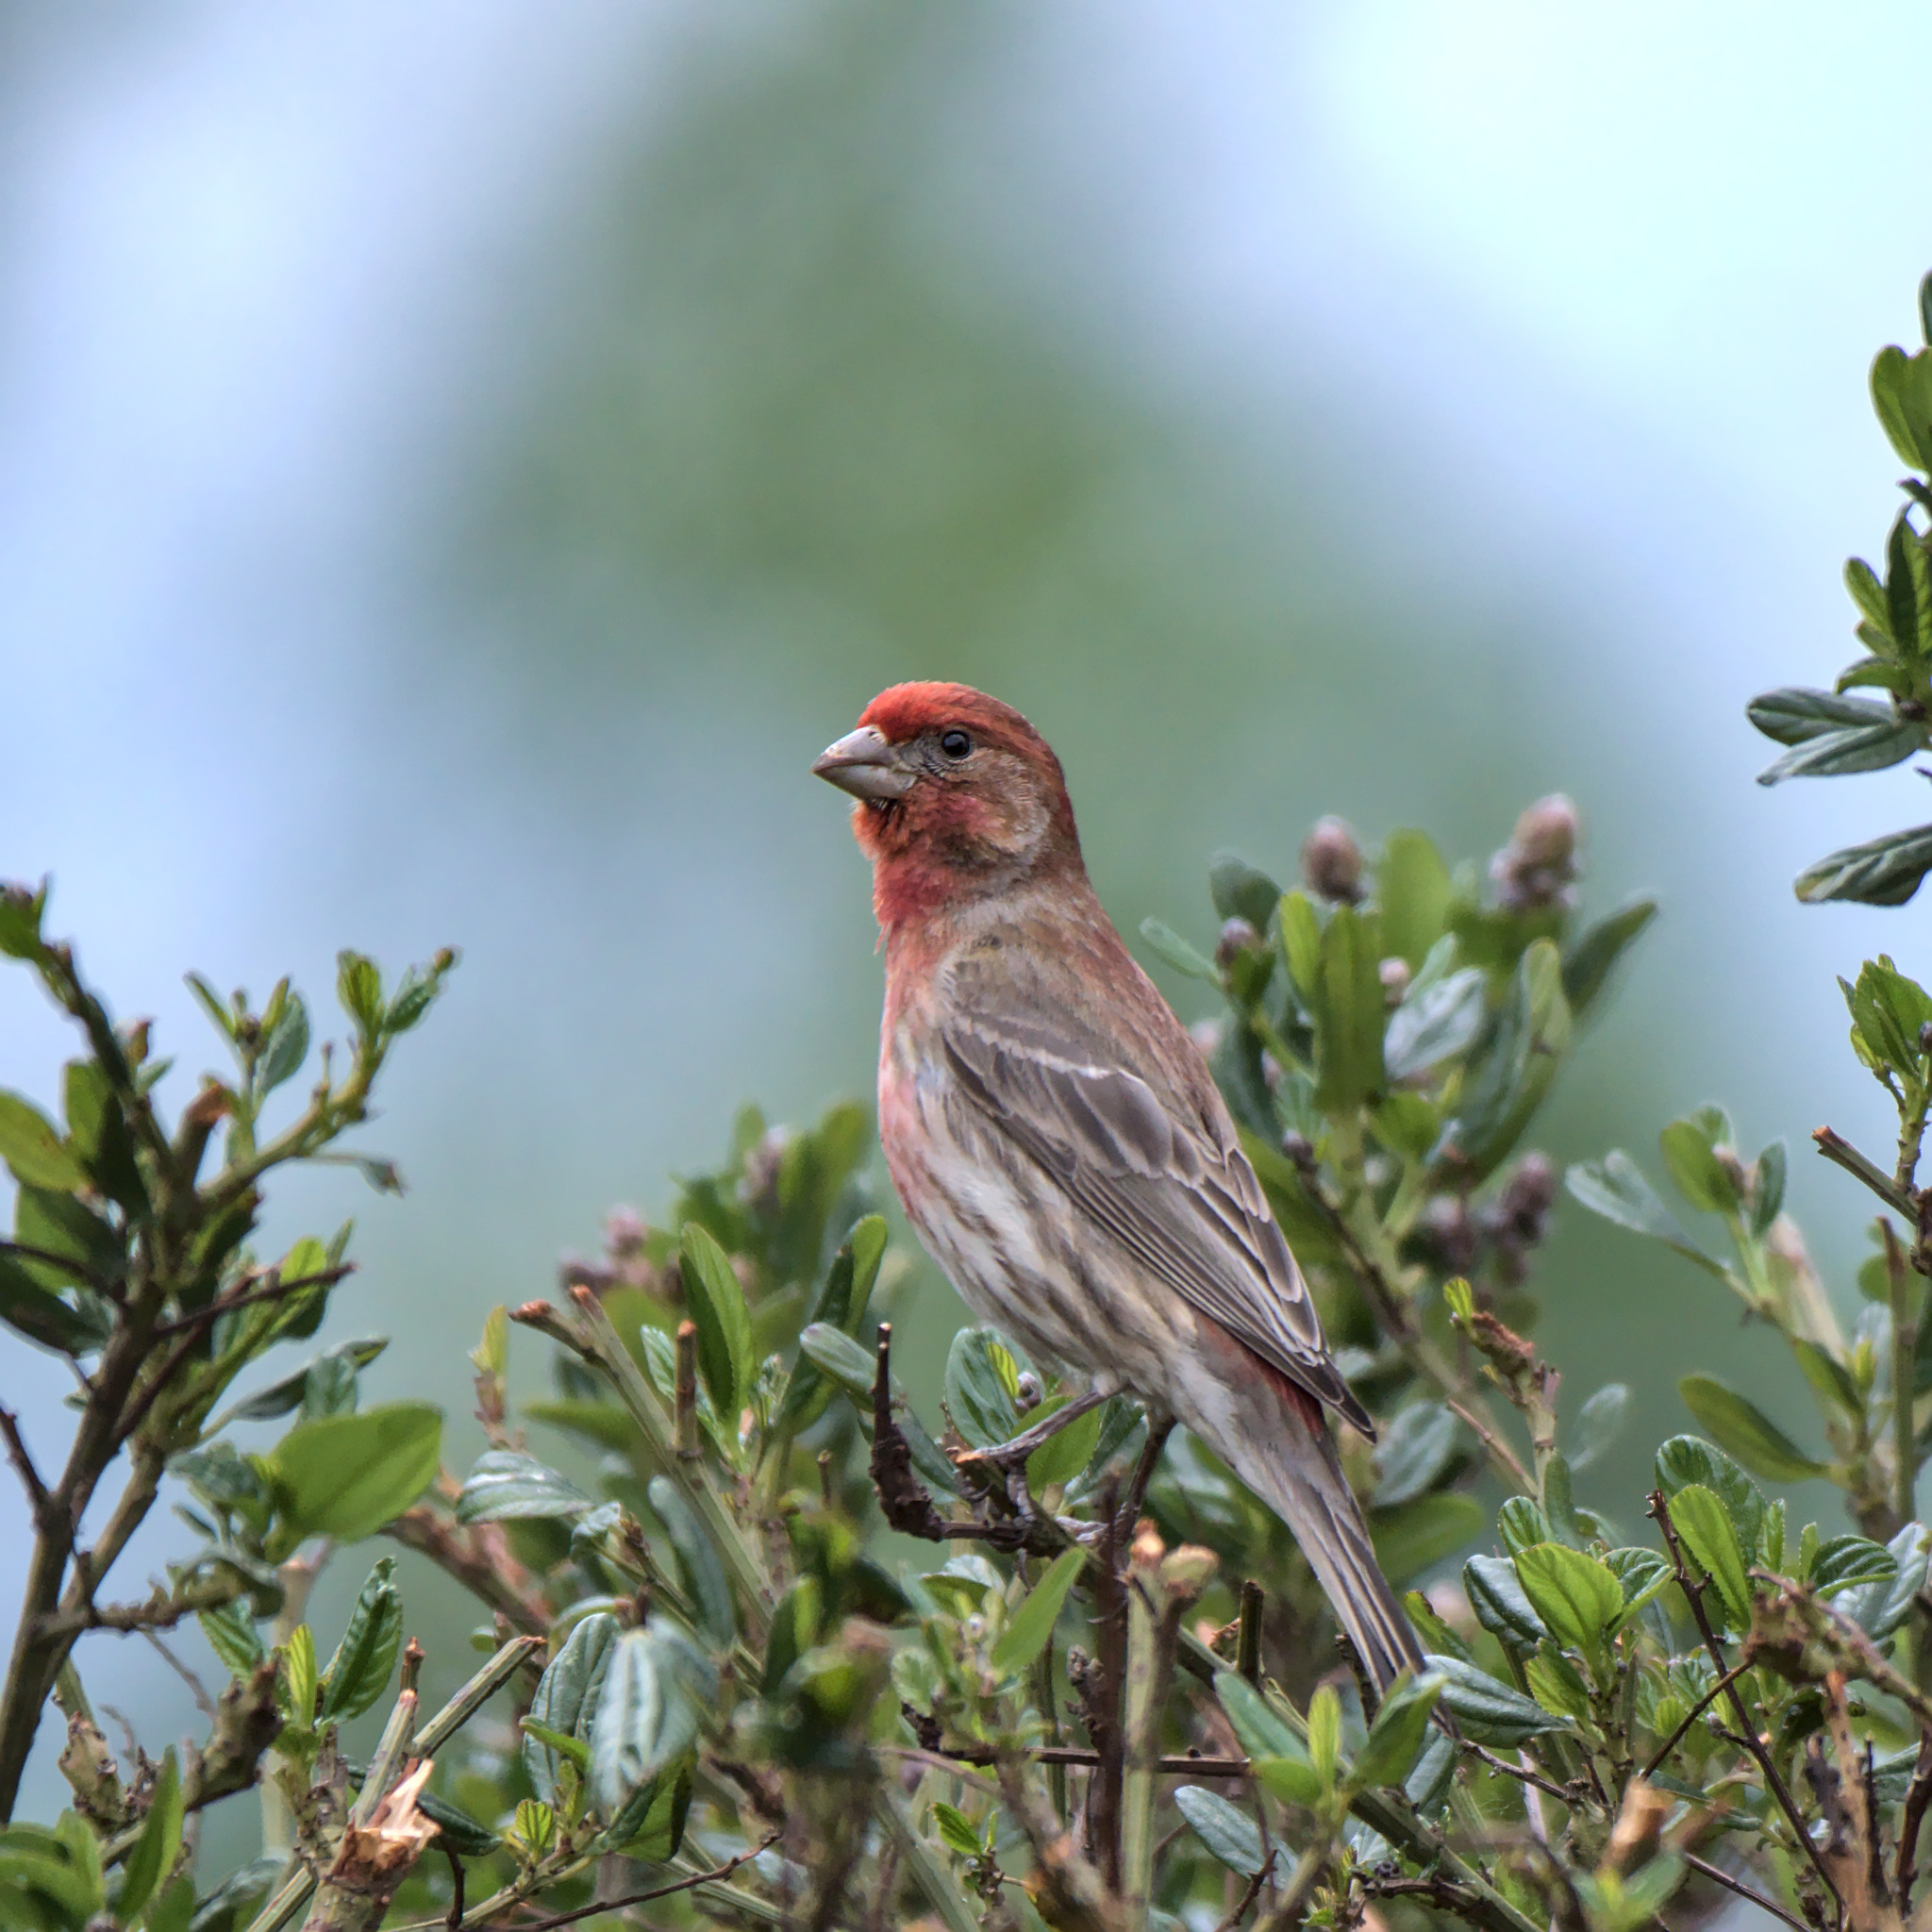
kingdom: Animalia
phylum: Chordata
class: Aves
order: Passeriformes
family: Fringillidae
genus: Haemorhous
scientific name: Haemorhous mexicanus
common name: House finch
